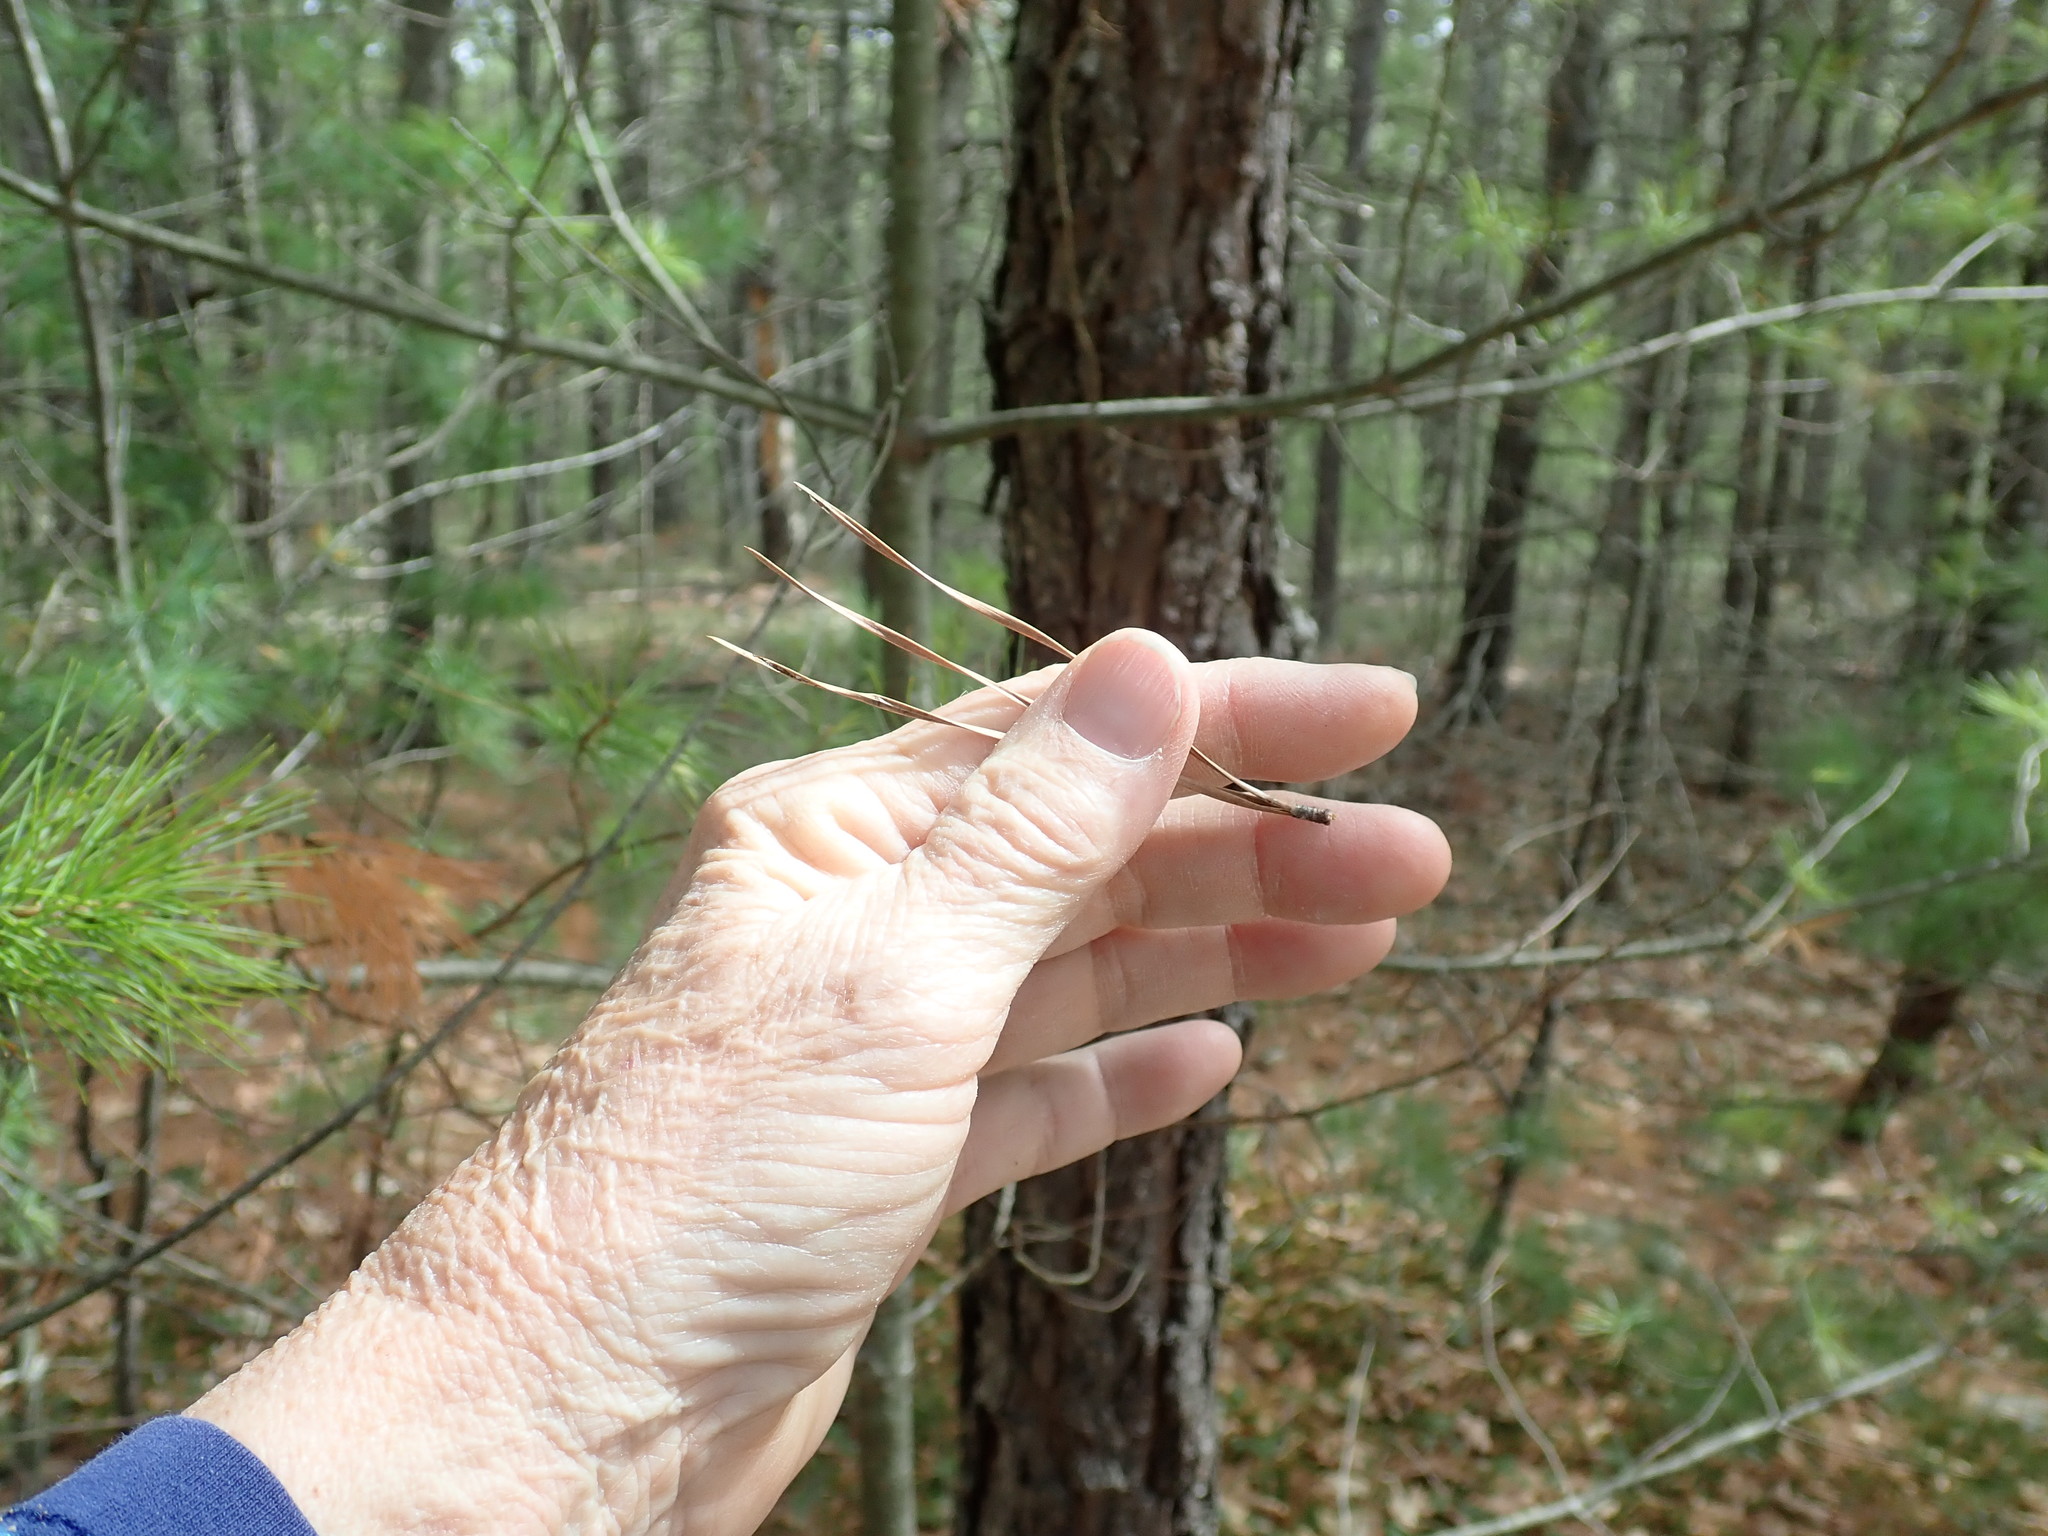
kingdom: Plantae
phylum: Tracheophyta
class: Pinopsida
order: Pinales
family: Pinaceae
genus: Pinus
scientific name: Pinus rigida
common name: Pitch pine
